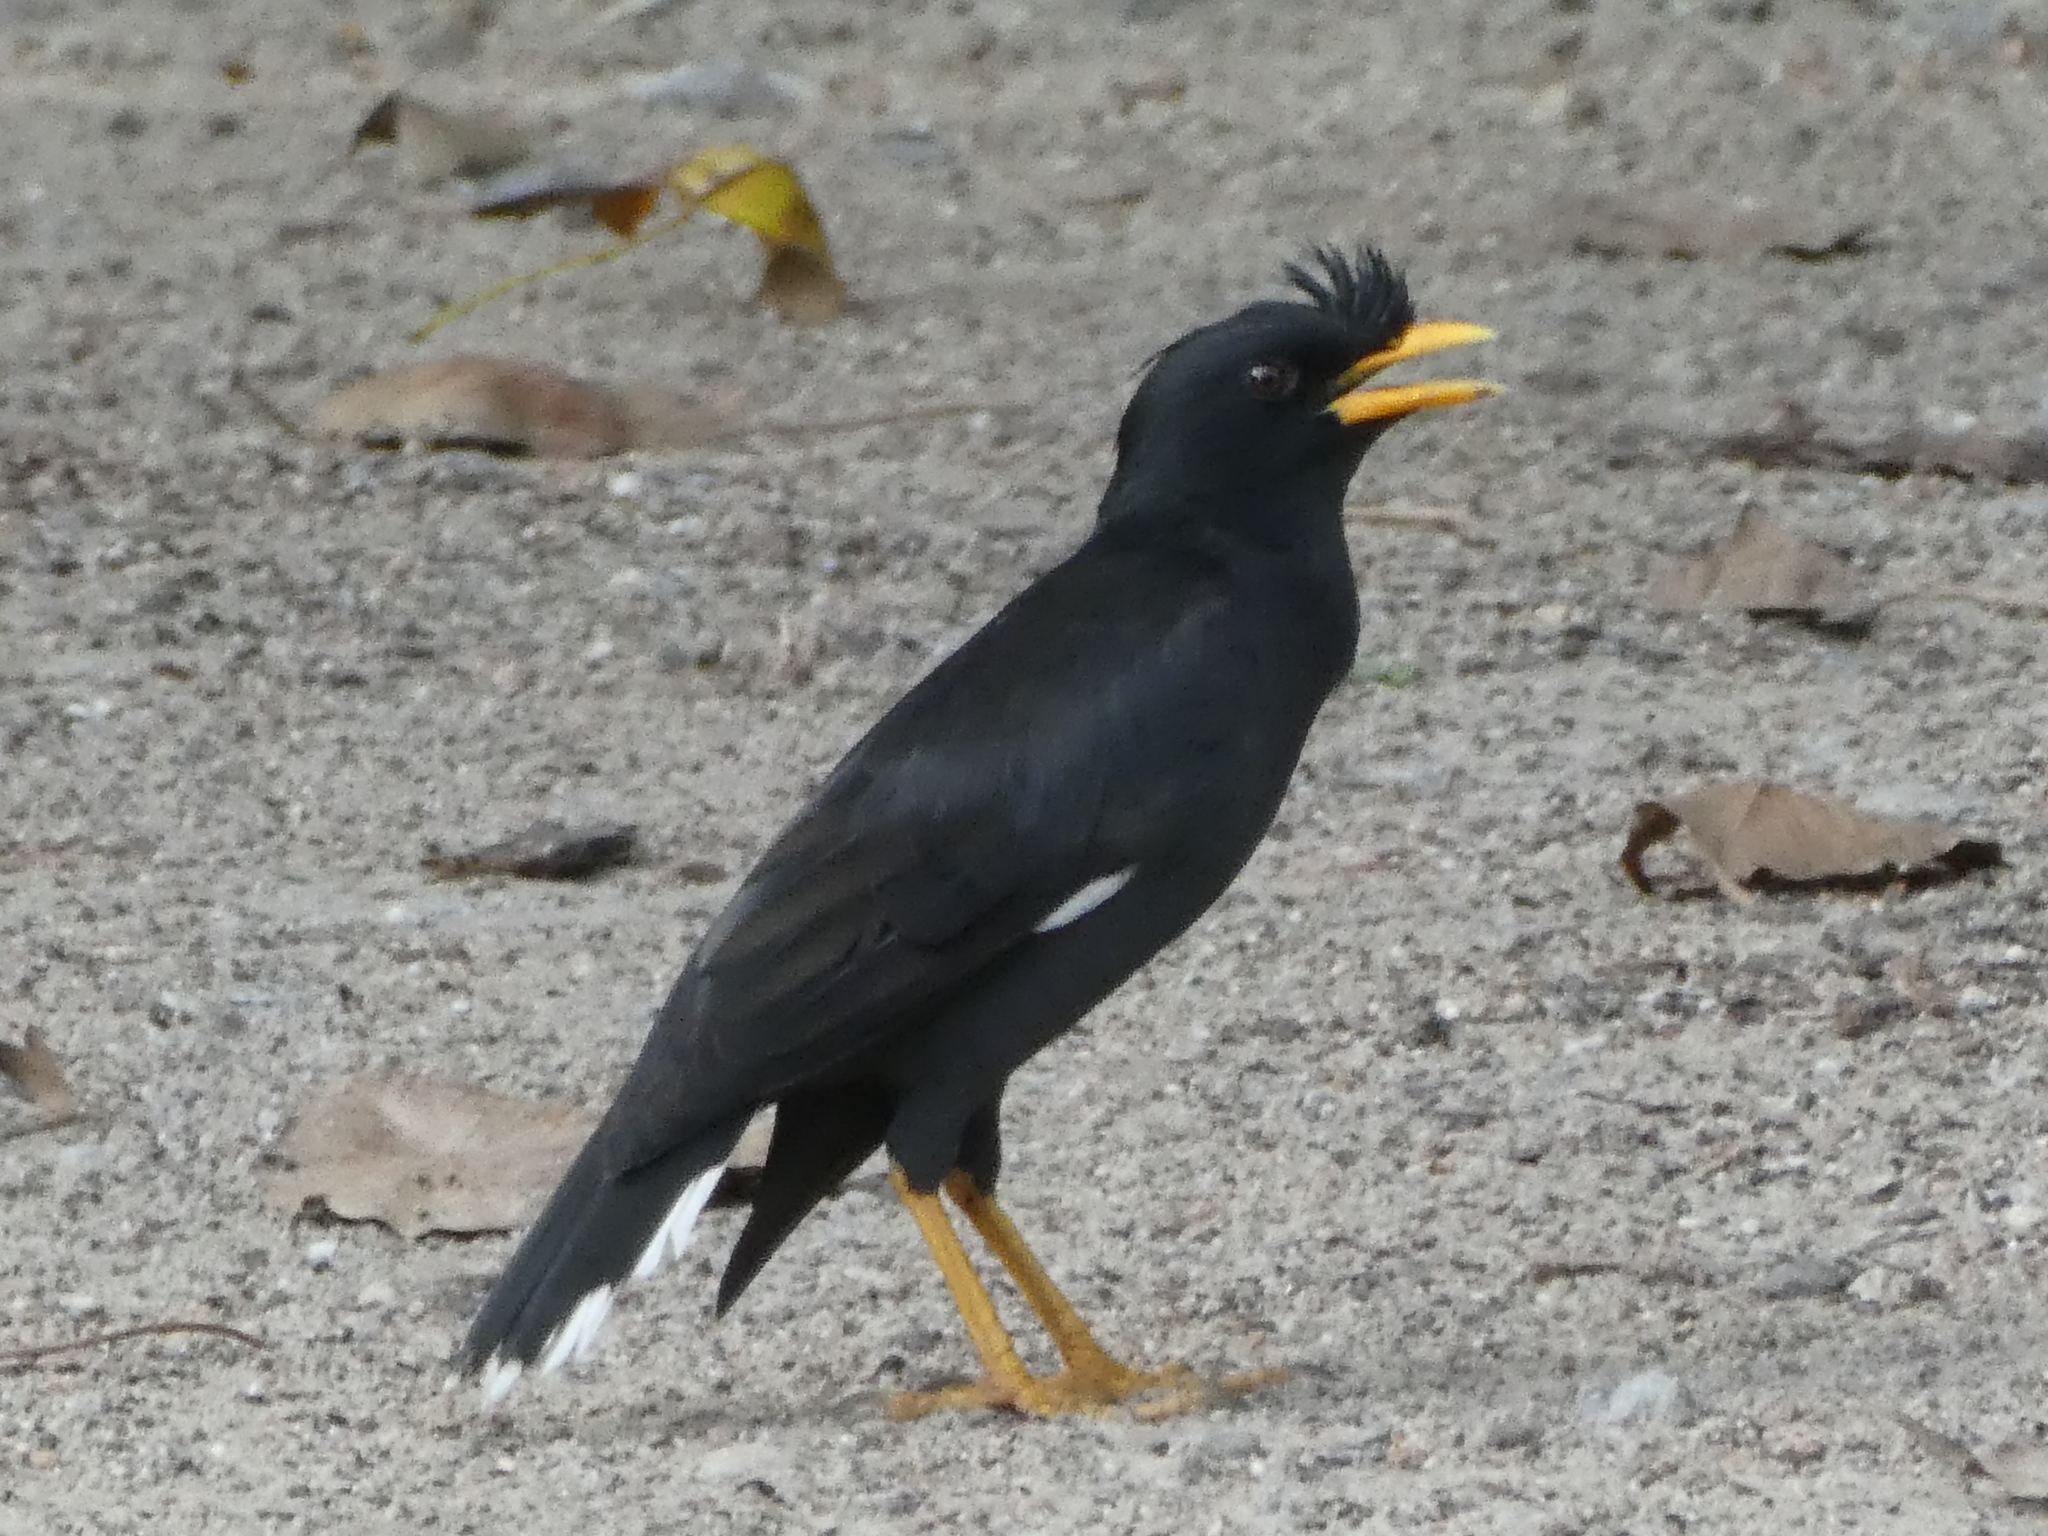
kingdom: Animalia
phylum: Chordata
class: Aves
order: Passeriformes
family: Sturnidae
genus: Acridotheres
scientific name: Acridotheres grandis
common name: Great myna
